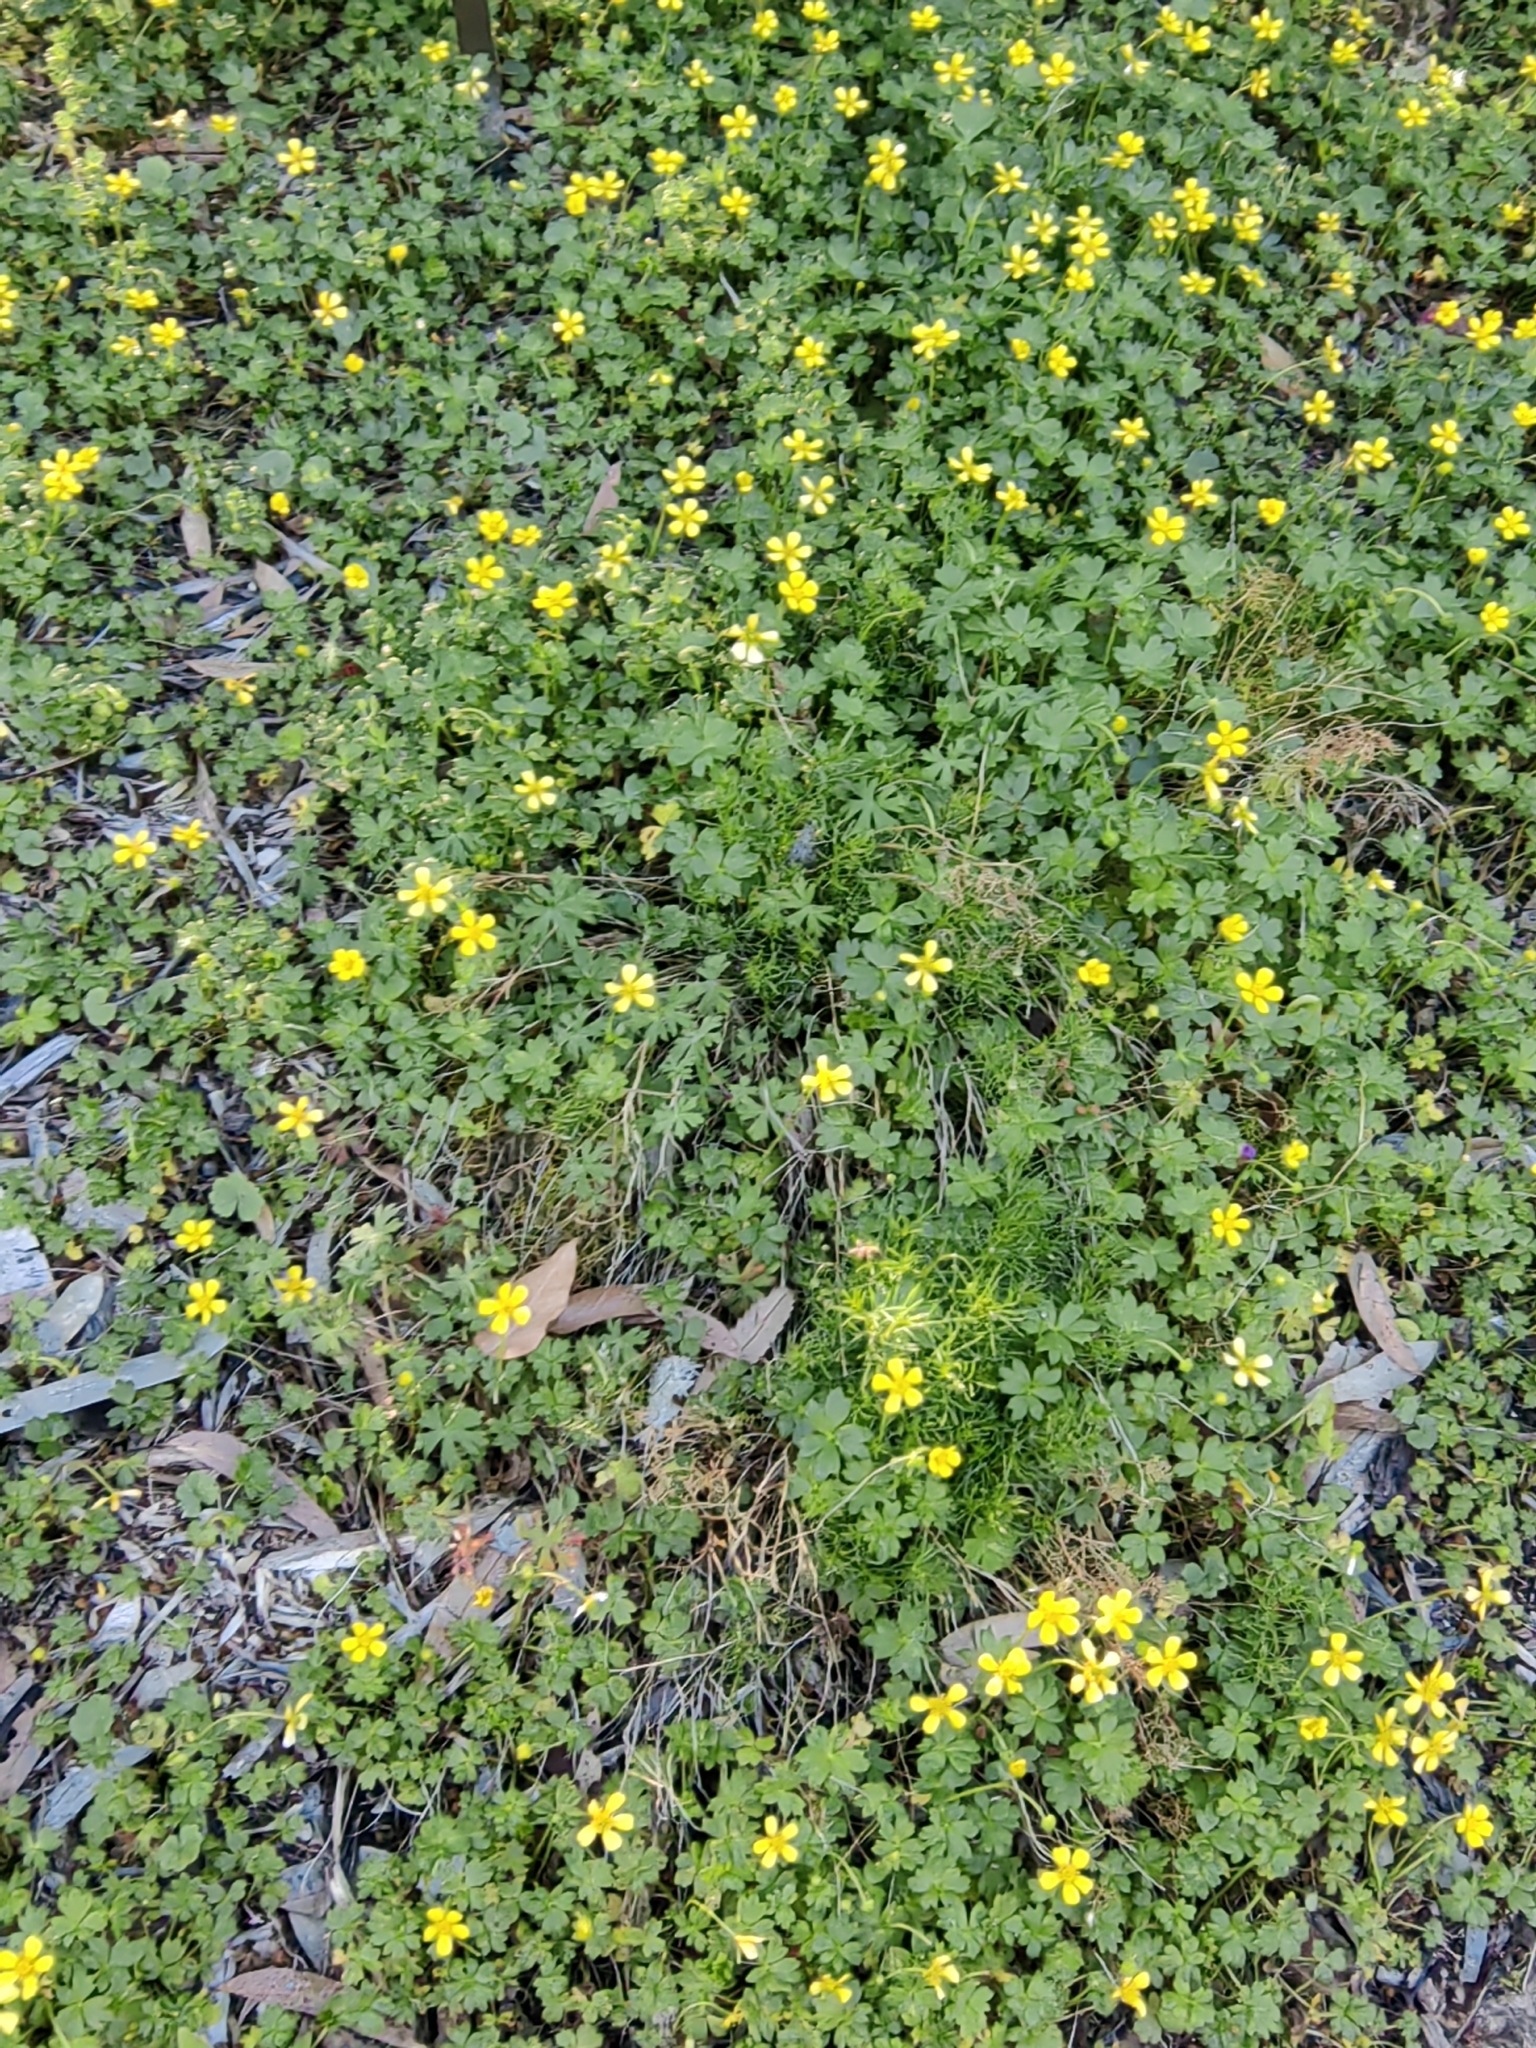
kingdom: Plantae
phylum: Tracheophyta
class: Magnoliopsida
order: Ranunculales
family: Ranunculaceae
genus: Ranunculus
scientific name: Ranunculus muricatus
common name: Rough-fruited buttercup
